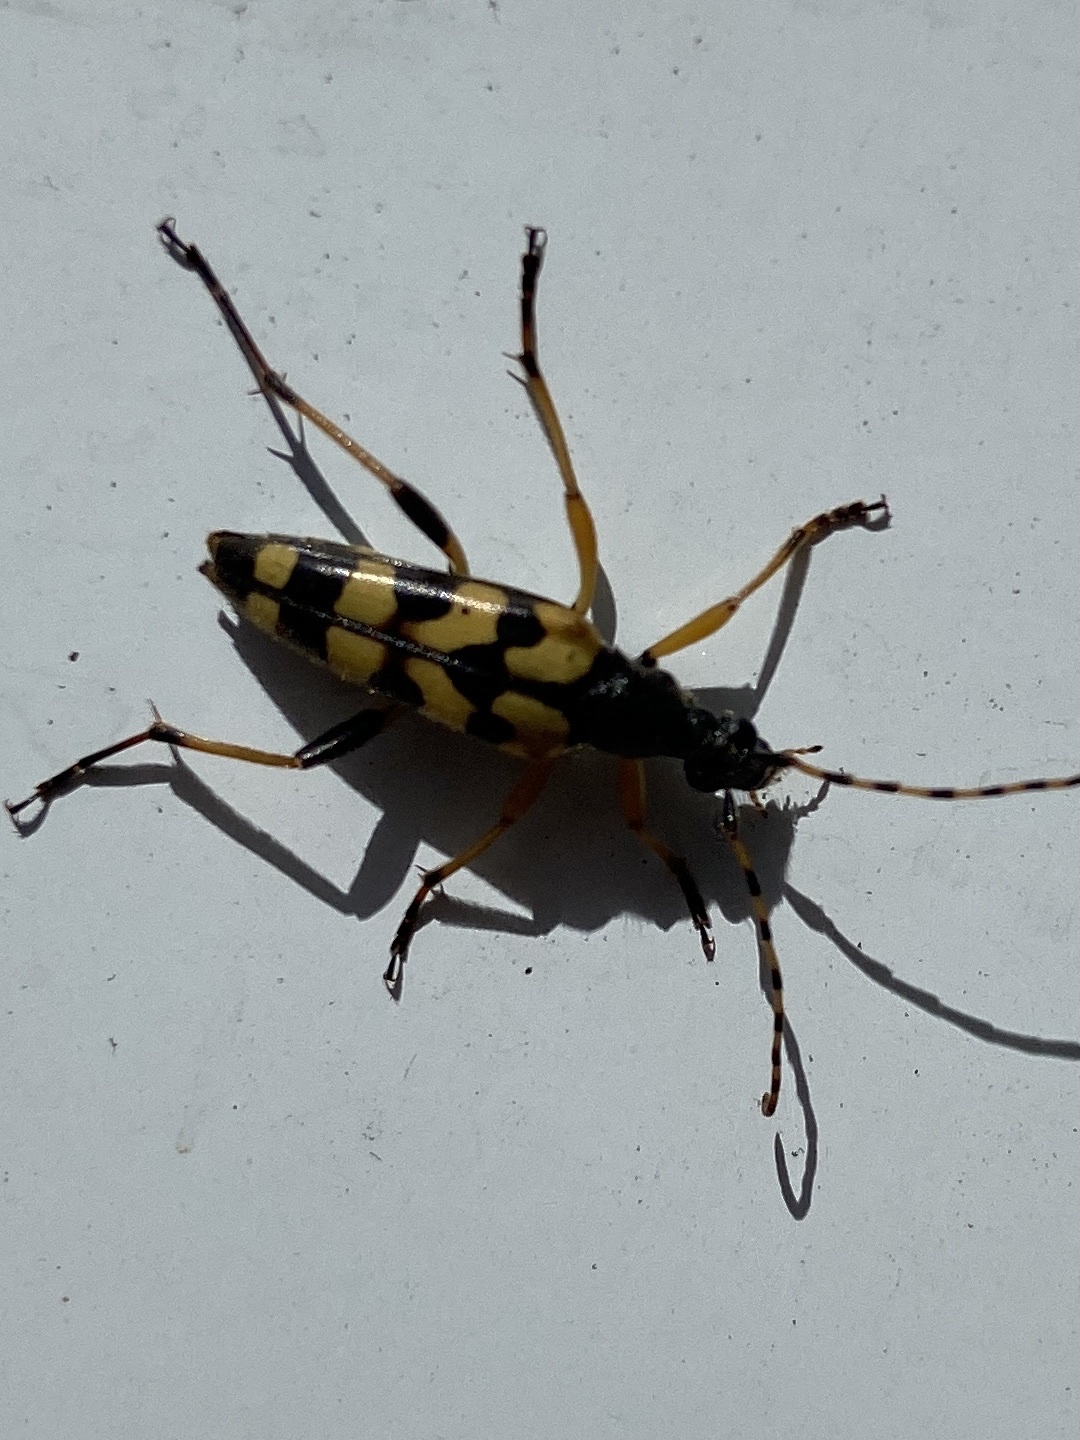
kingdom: Animalia
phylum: Arthropoda
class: Insecta
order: Coleoptera
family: Cerambycidae
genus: Rutpela
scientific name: Rutpela maculata
